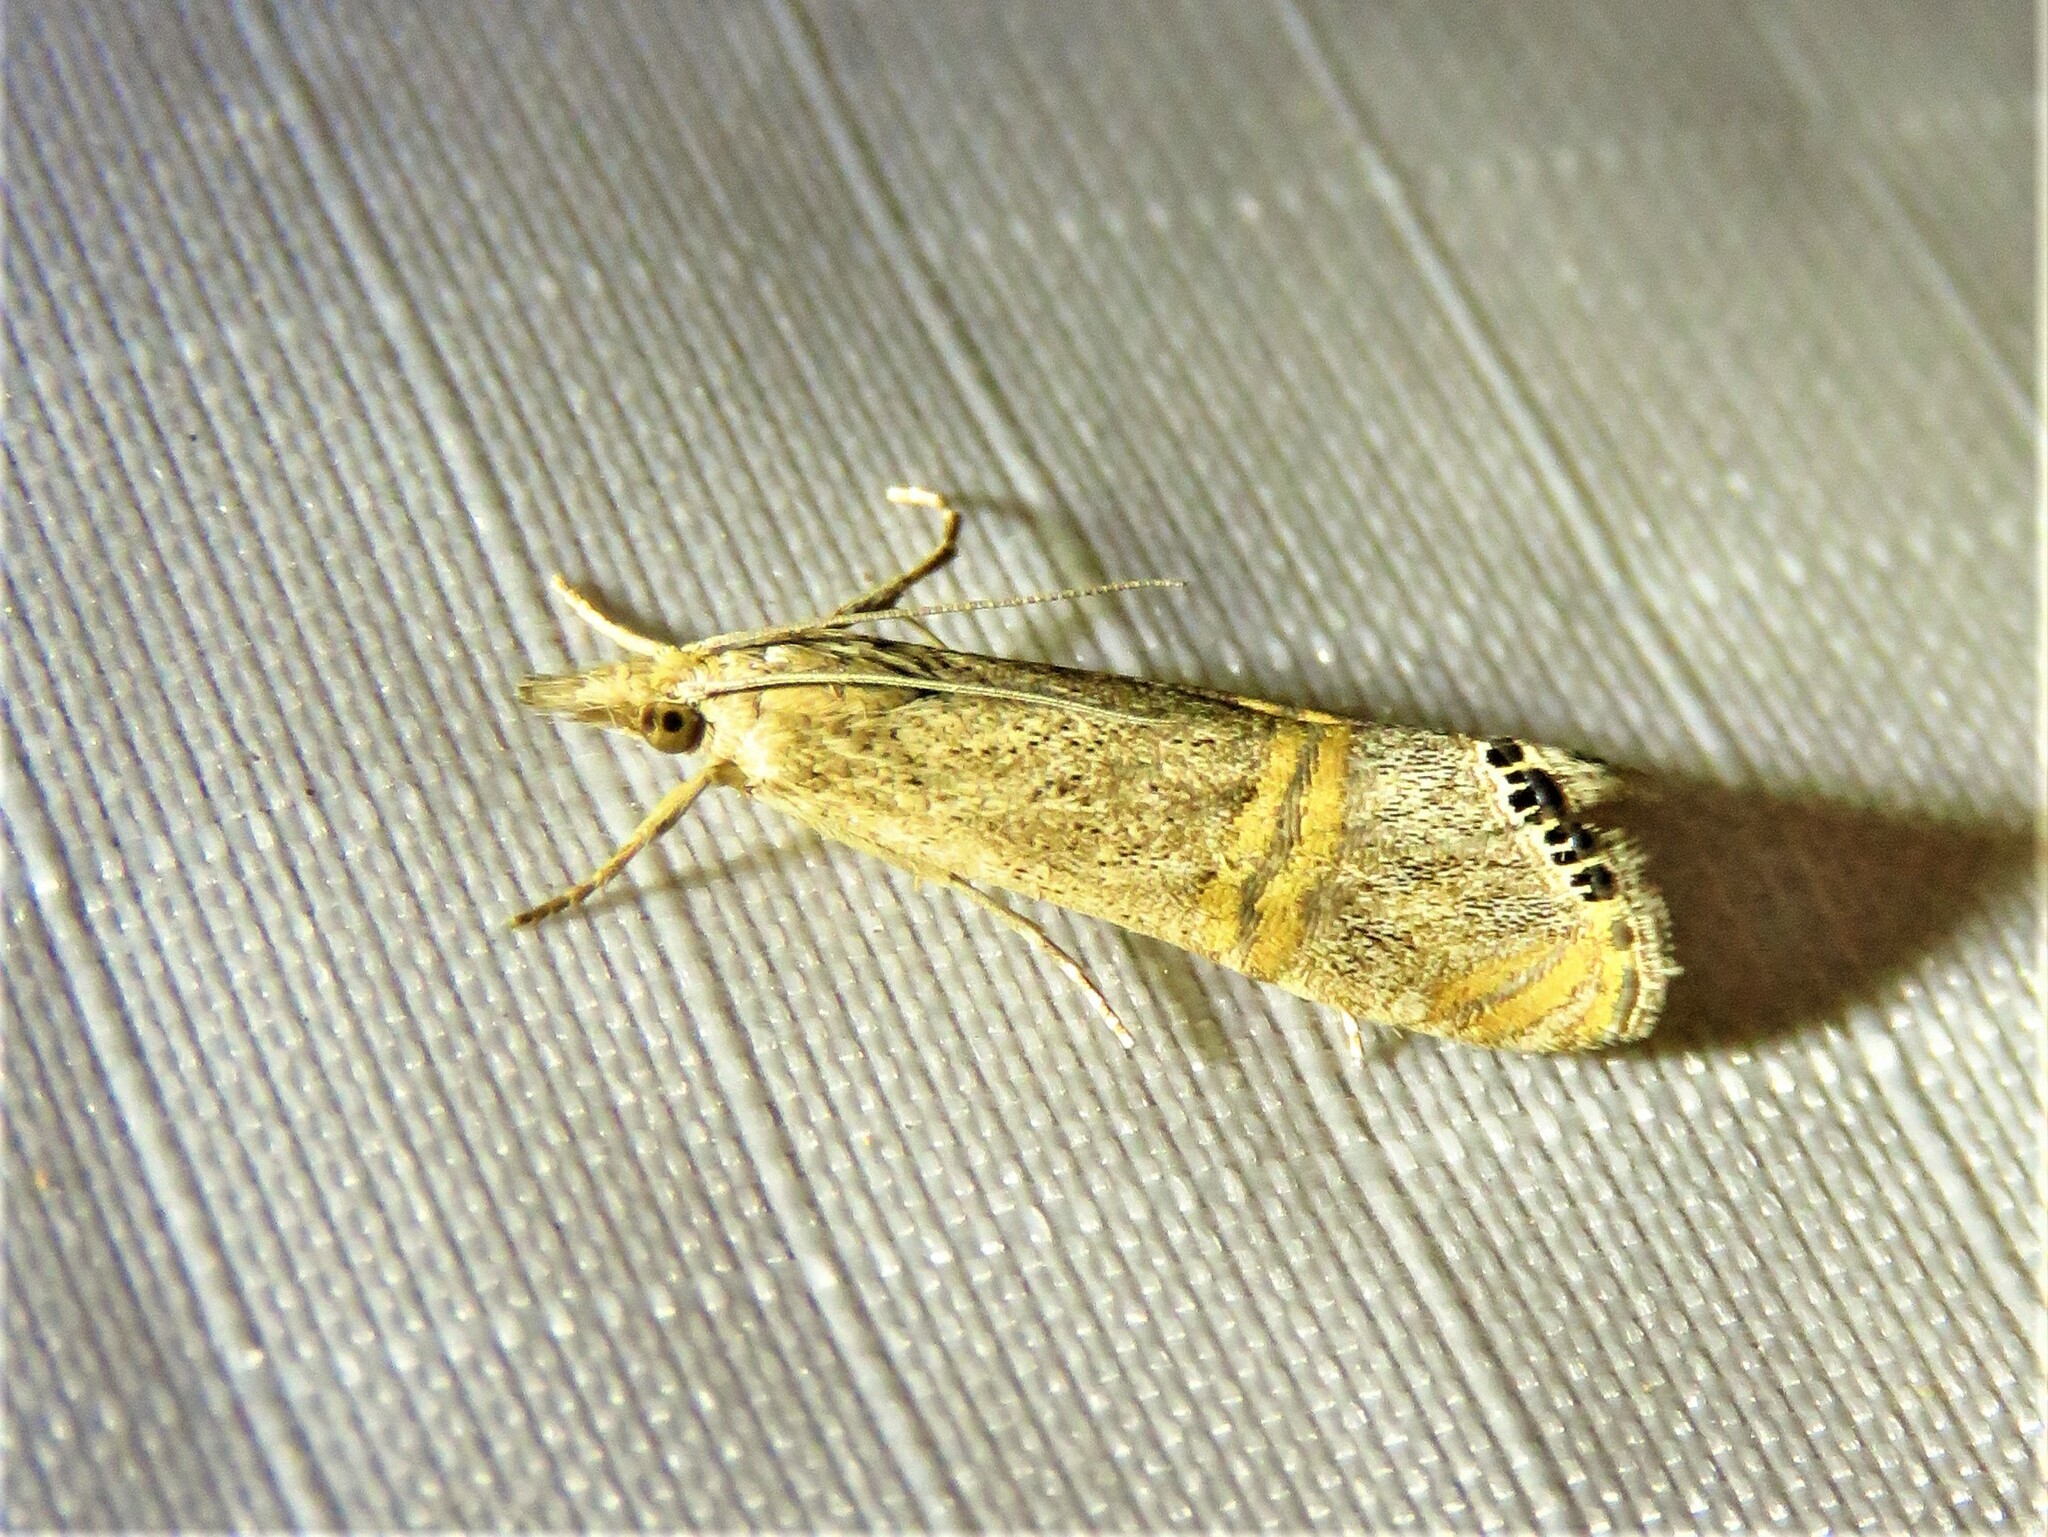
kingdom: Animalia
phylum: Arthropoda
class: Insecta
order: Lepidoptera
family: Crambidae
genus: Euchromius
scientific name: Euchromius ocellea
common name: Necklace veneer moth
